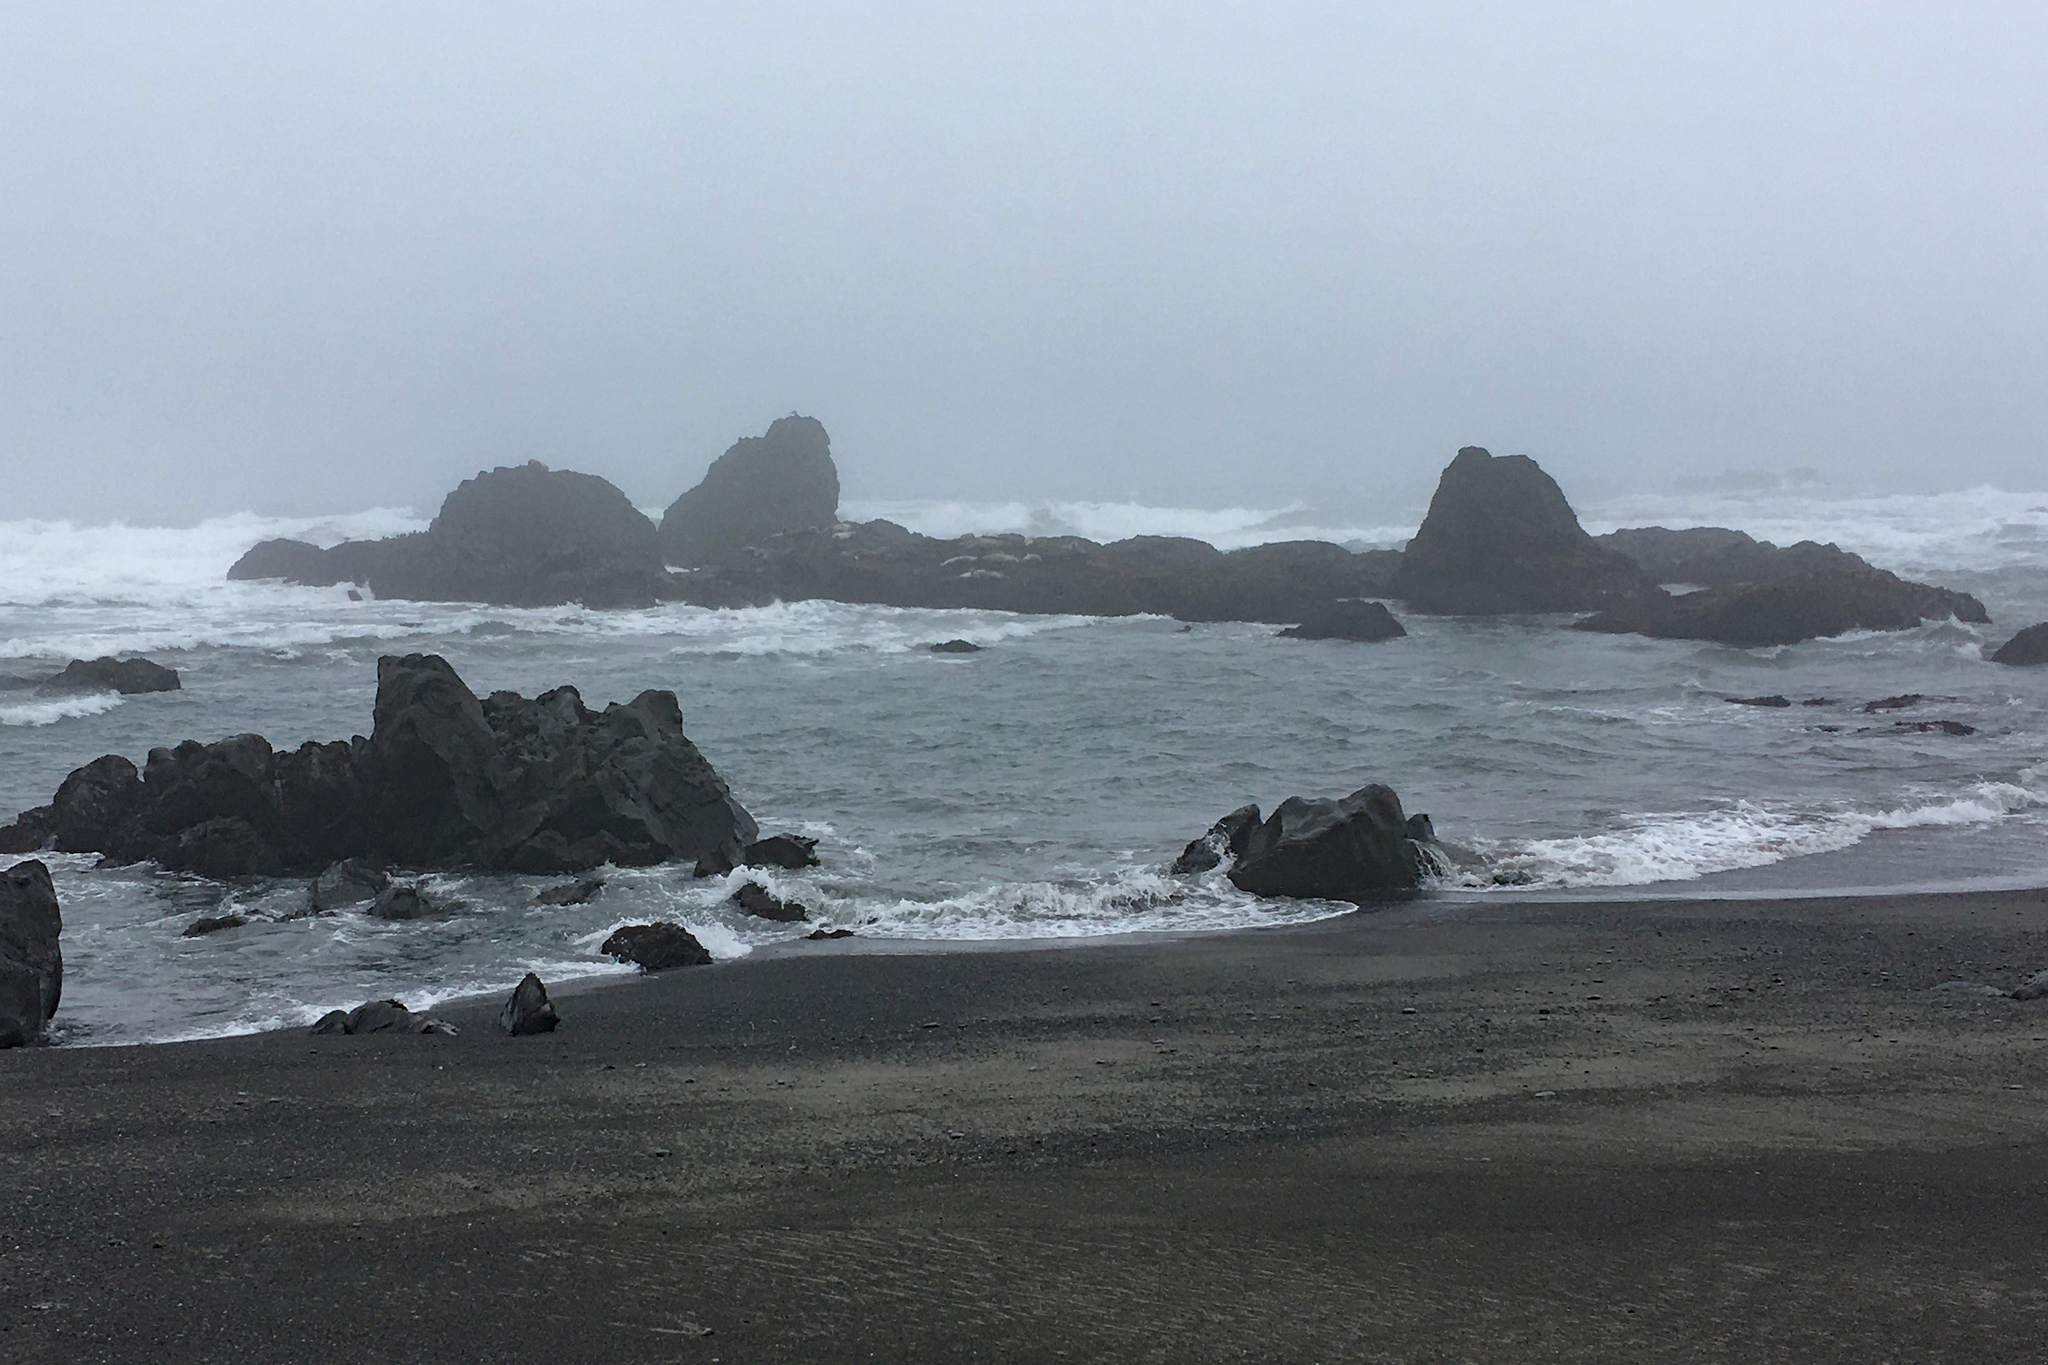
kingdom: Animalia
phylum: Chordata
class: Mammalia
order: Carnivora
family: Phocidae
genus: Phoca
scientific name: Phoca vitulina
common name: Harbor seal
